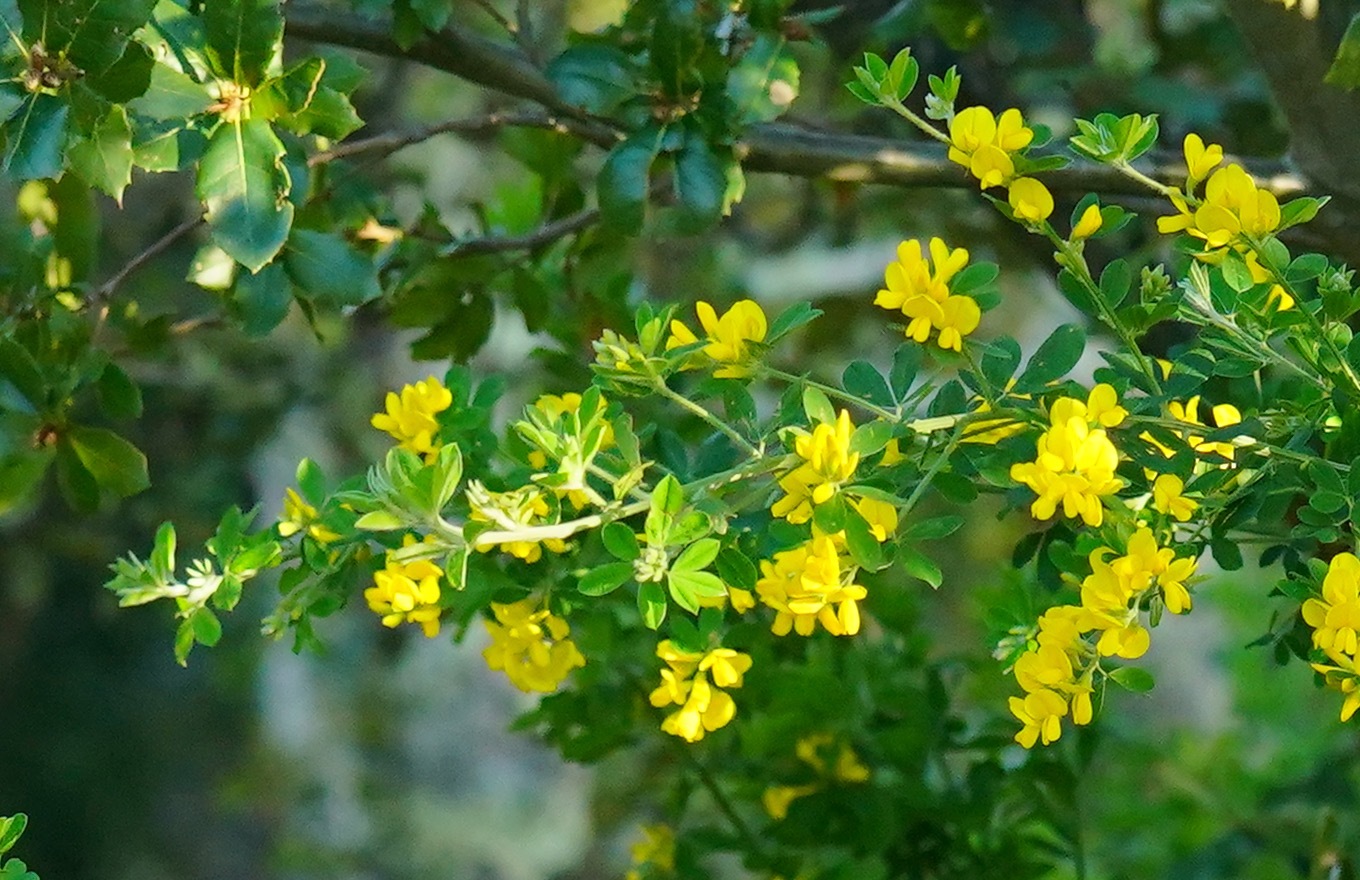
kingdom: Plantae
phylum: Tracheophyta
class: Magnoliopsida
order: Fabales
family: Fabaceae
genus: Genista
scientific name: Genista monspessulana
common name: Montpellier broom
